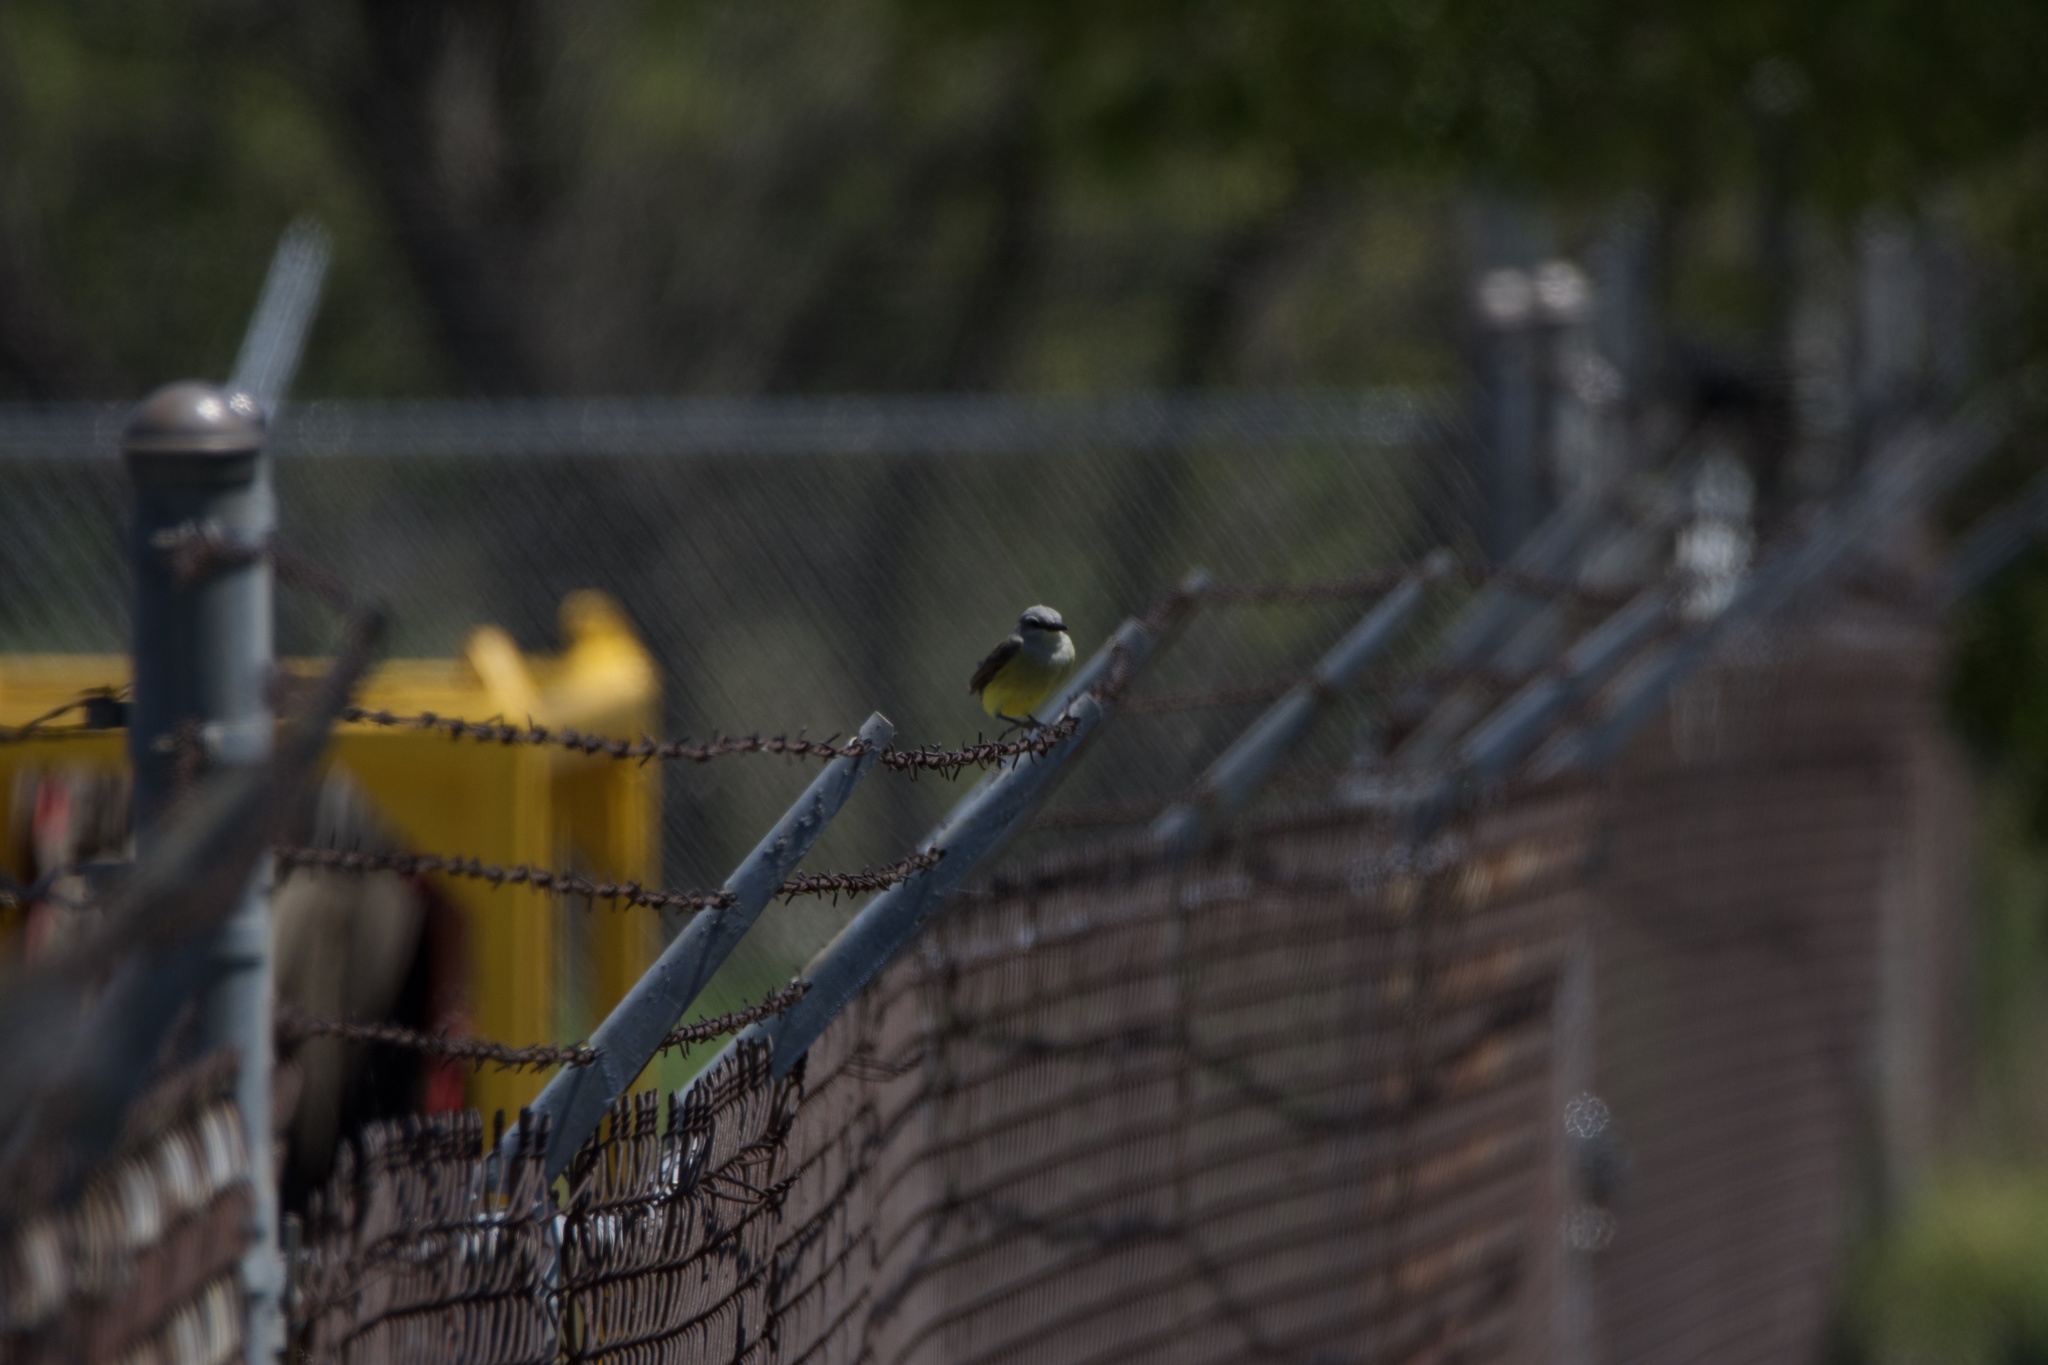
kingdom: Animalia
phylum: Chordata
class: Aves
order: Passeriformes
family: Tyrannidae
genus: Tyrannus
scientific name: Tyrannus verticalis
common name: Western kingbird
